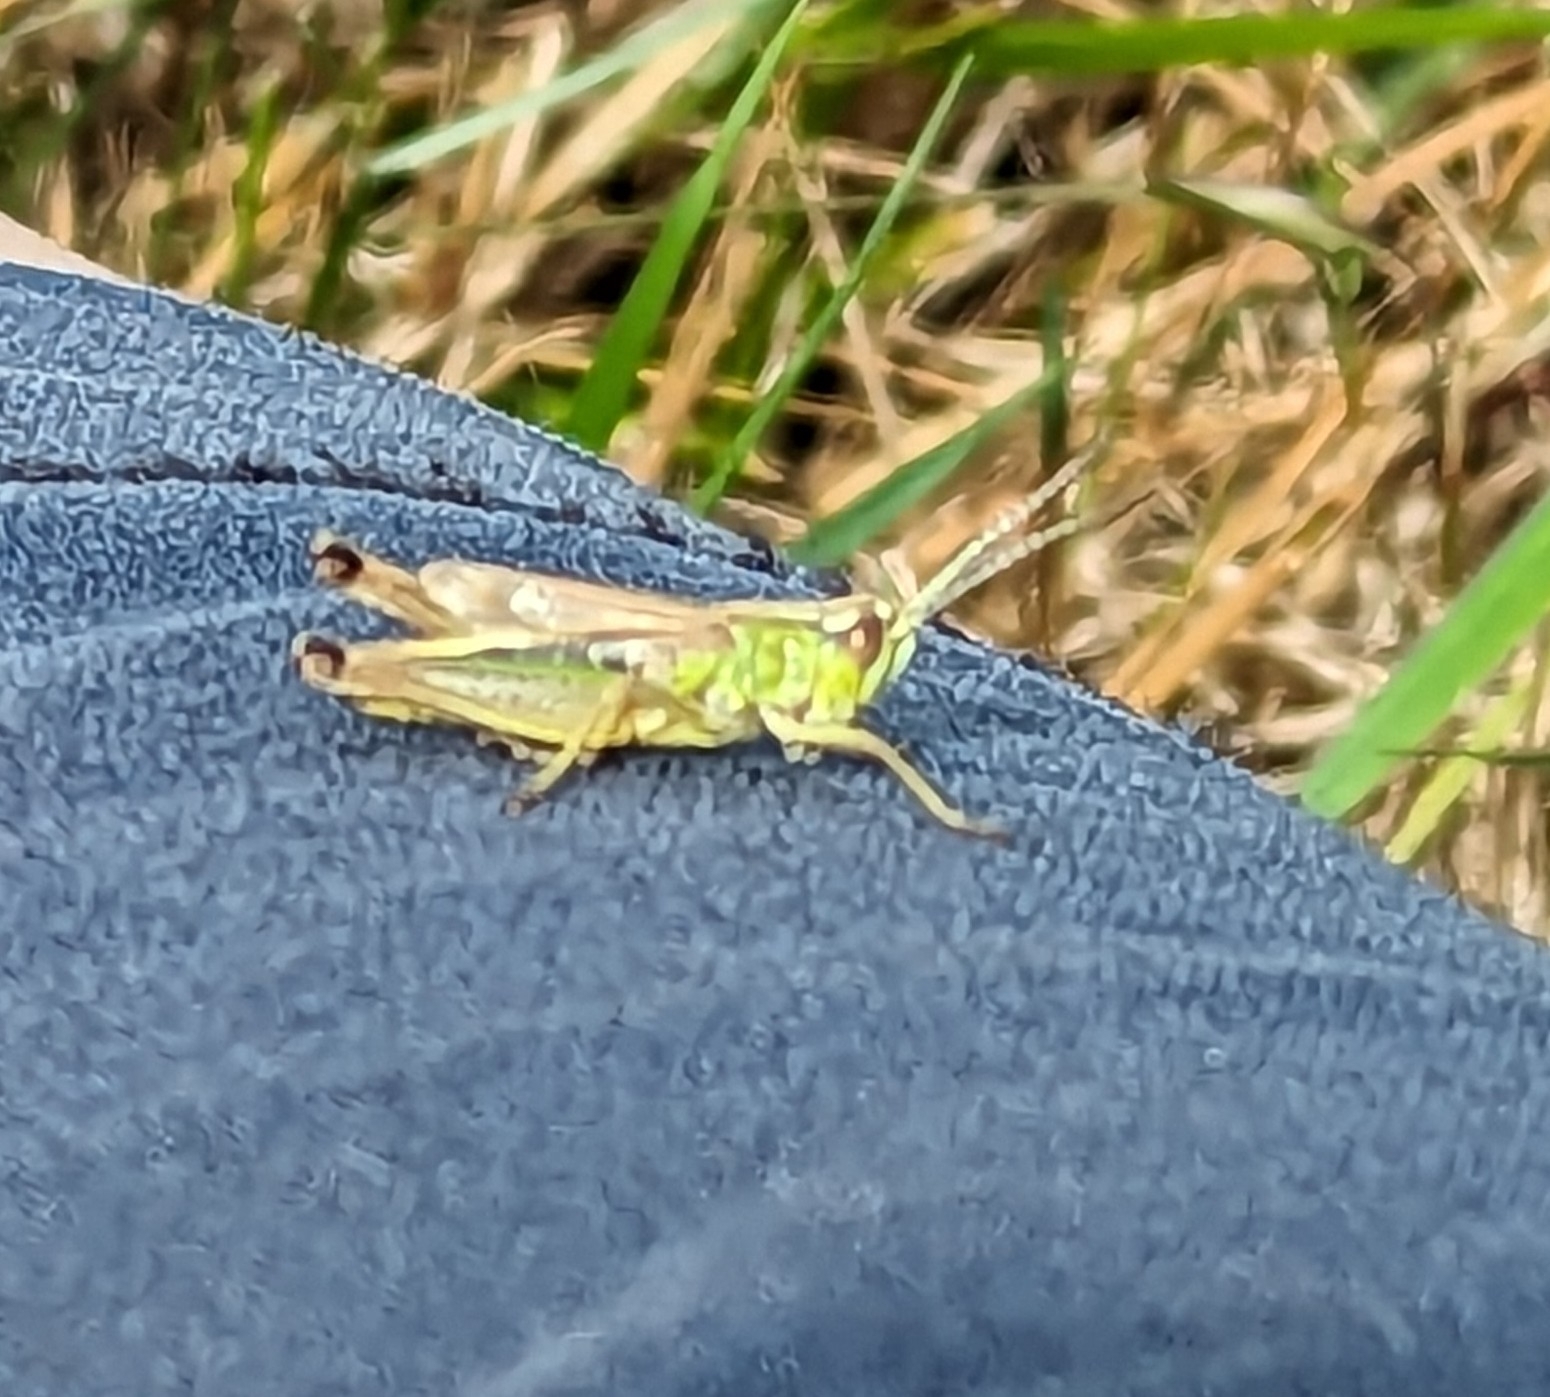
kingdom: Animalia
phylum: Arthropoda
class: Insecta
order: Orthoptera
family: Acrididae
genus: Pseudochorthippus
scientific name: Pseudochorthippus parallelus
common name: Meadow grasshopper
